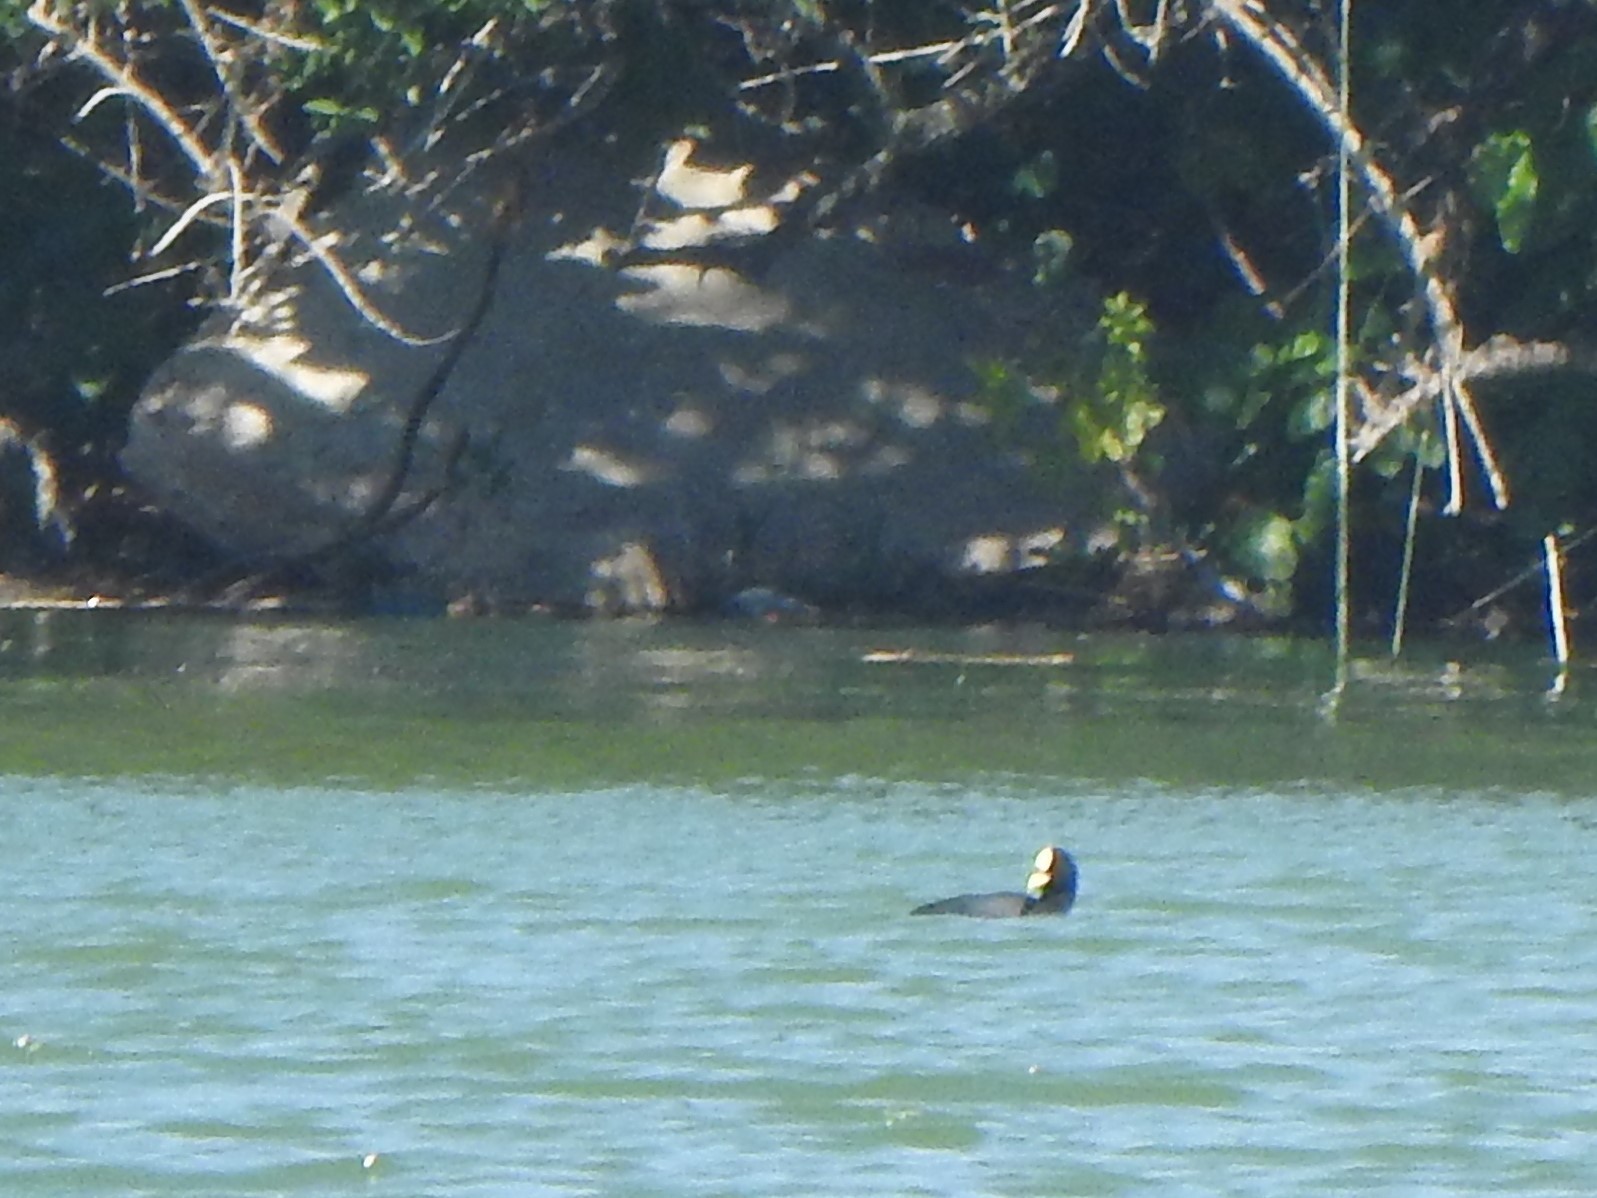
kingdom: Animalia
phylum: Chordata
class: Aves
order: Gruiformes
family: Rallidae
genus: Fulica
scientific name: Fulica armillata
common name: Red-gartered coot
